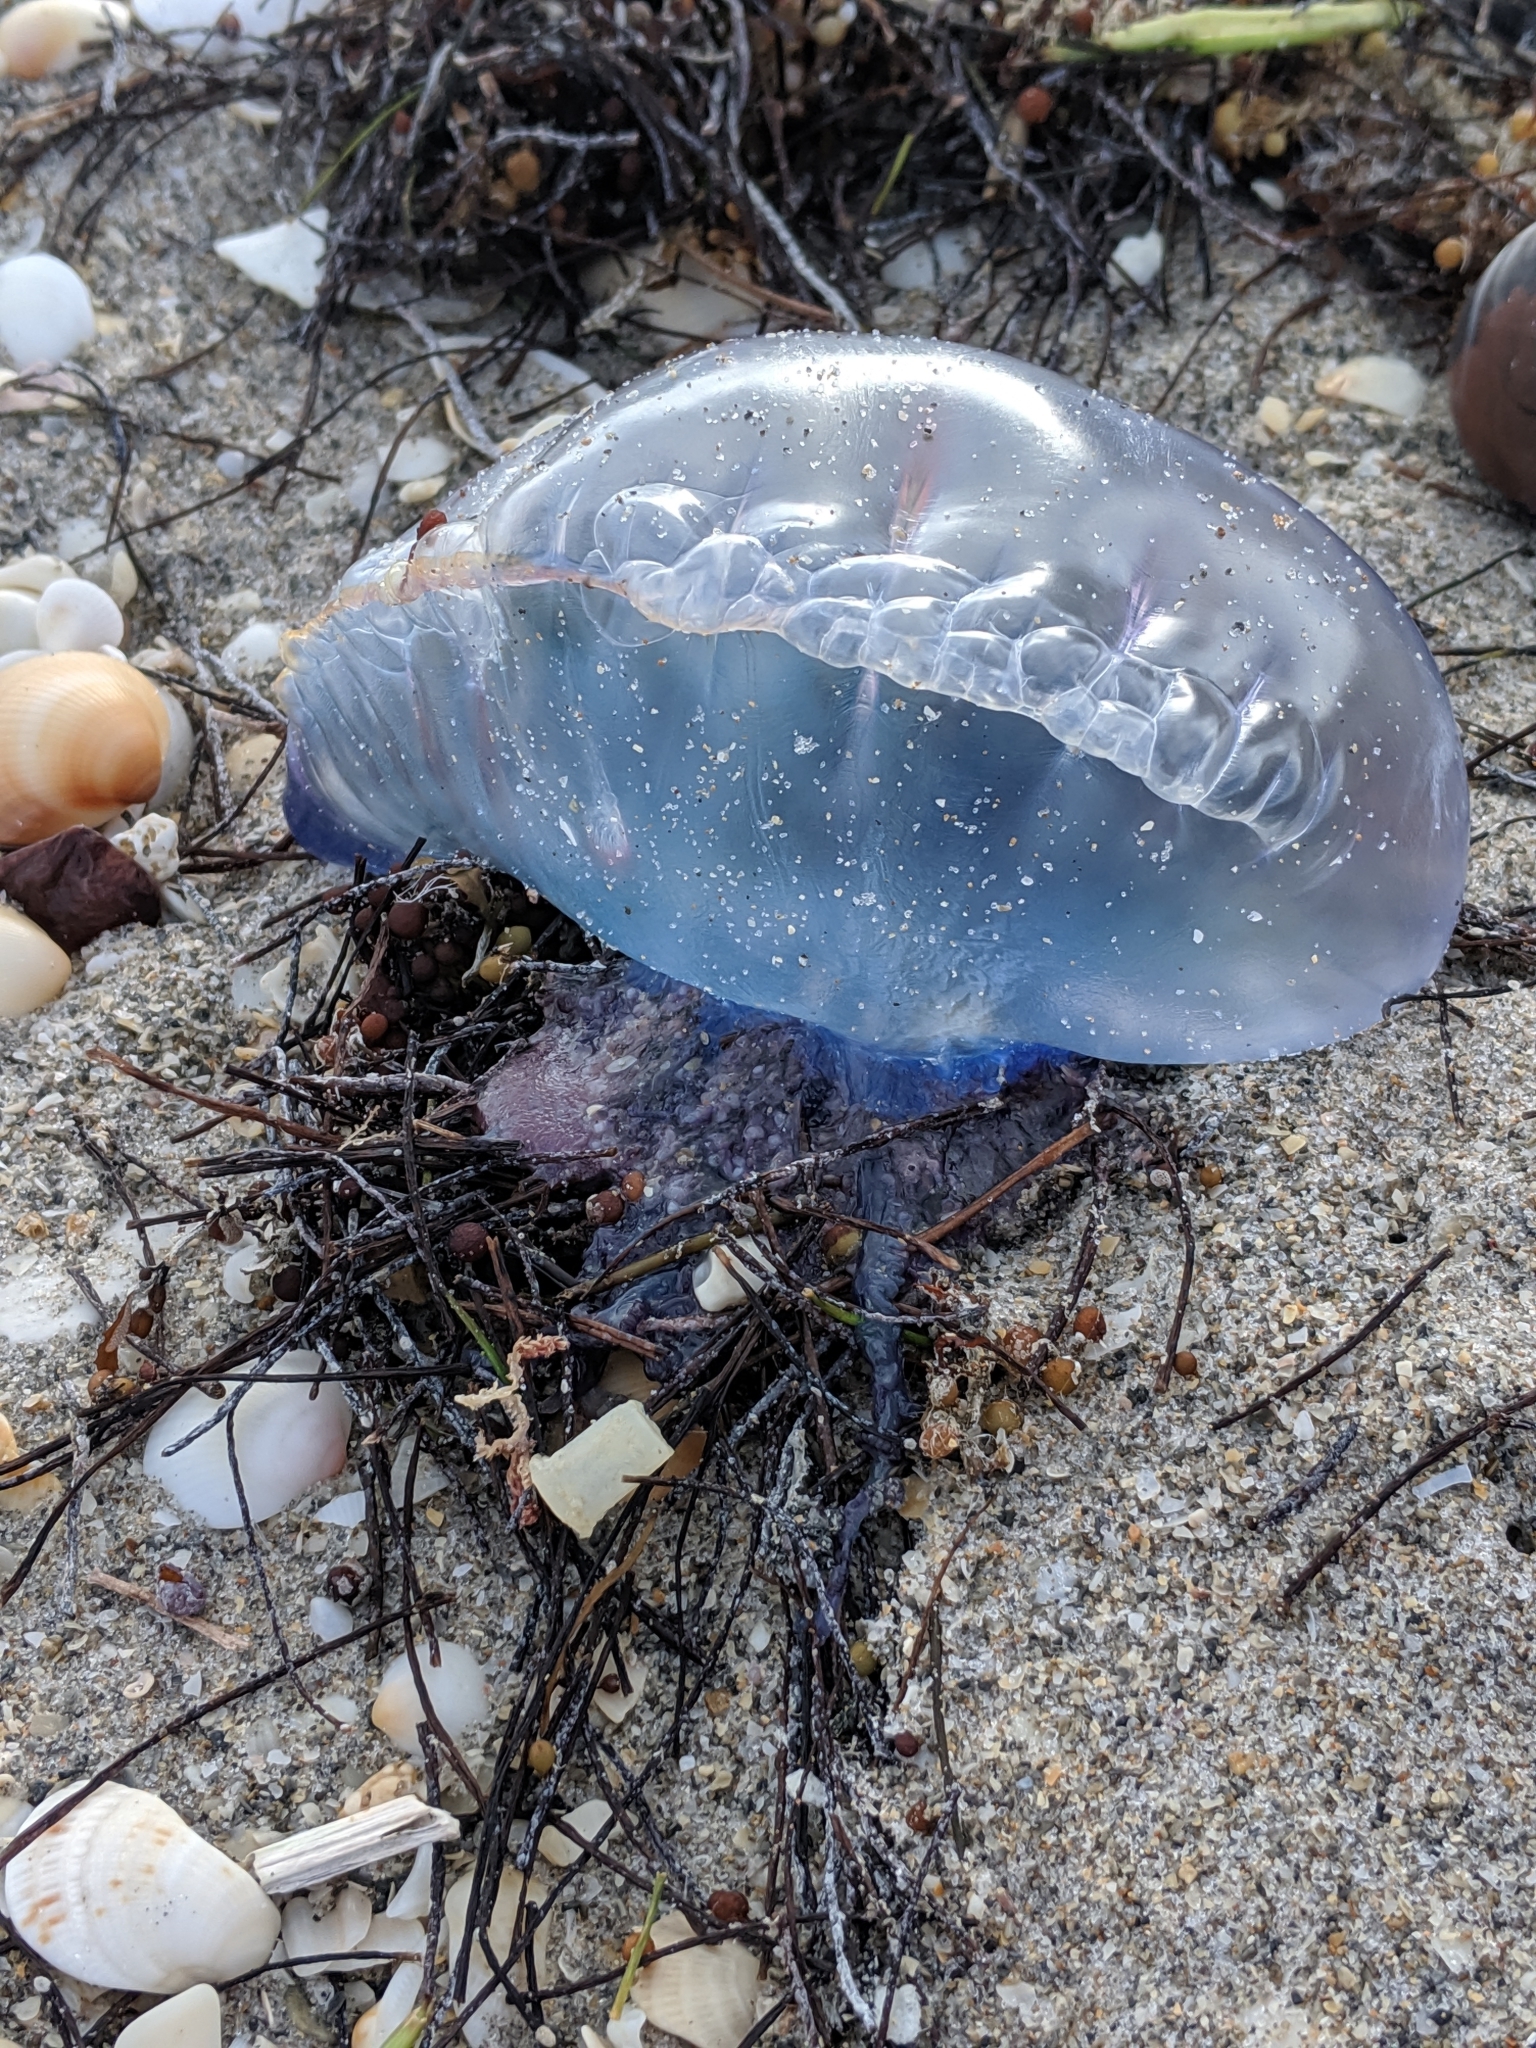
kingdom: Animalia
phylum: Cnidaria
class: Hydrozoa
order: Siphonophorae
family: Physaliidae
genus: Physalia
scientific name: Physalia physalis
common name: Portuguese man-of-war
